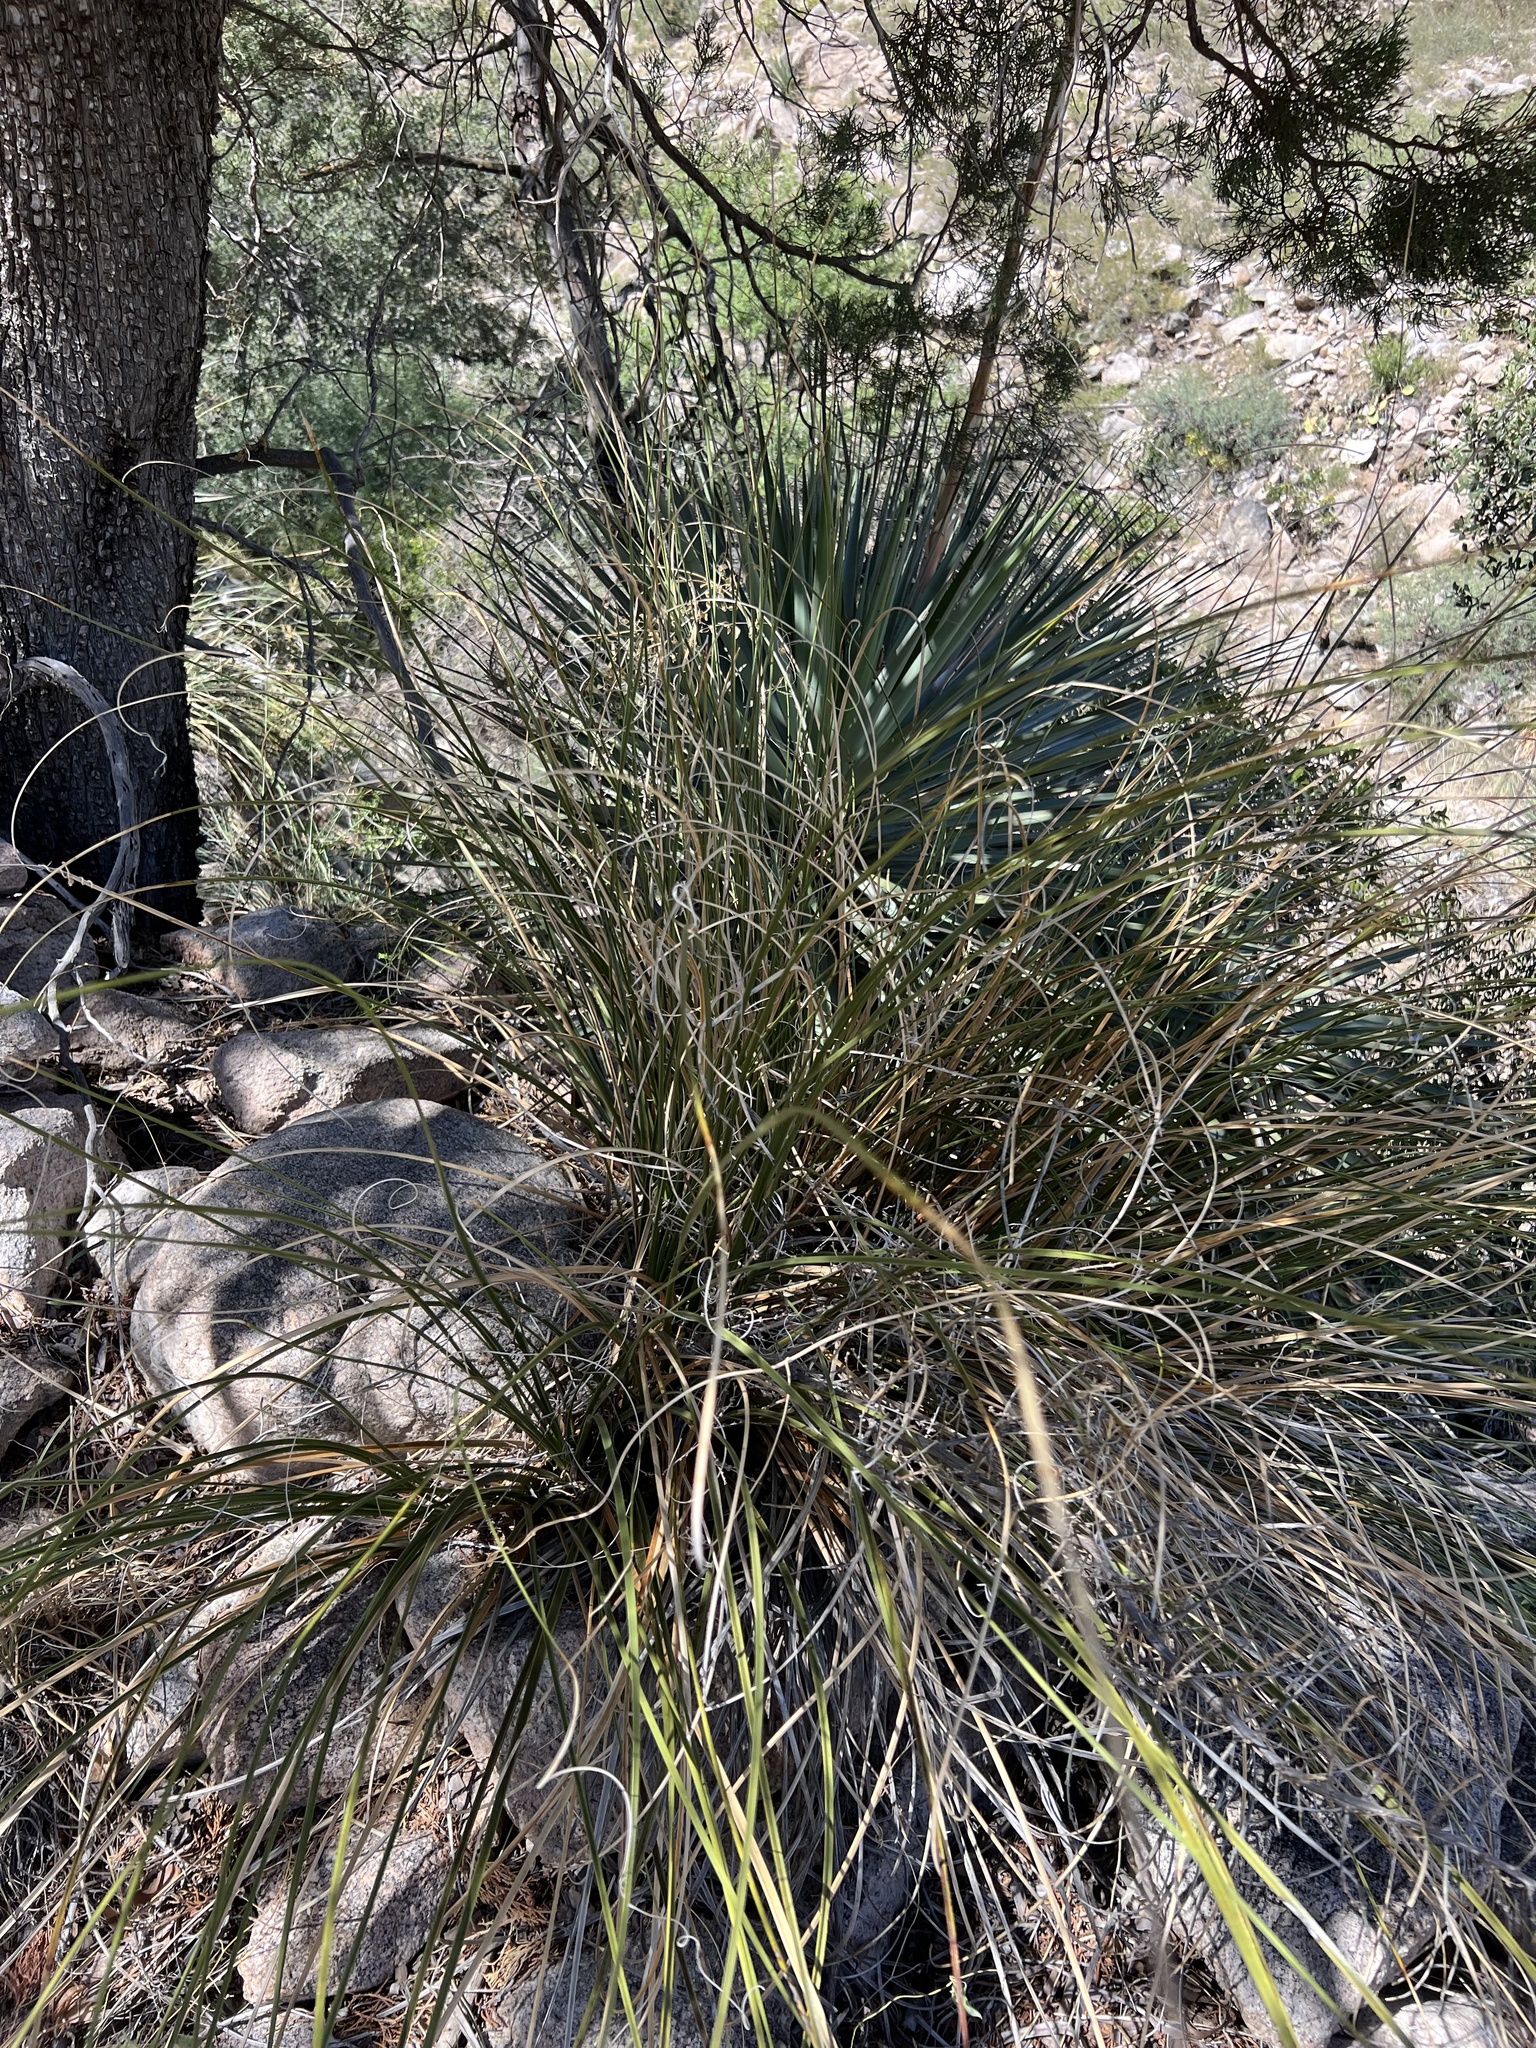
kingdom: Plantae
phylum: Tracheophyta
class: Liliopsida
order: Asparagales
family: Asparagaceae
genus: Nolina
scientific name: Nolina microcarpa
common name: Bear-grass
